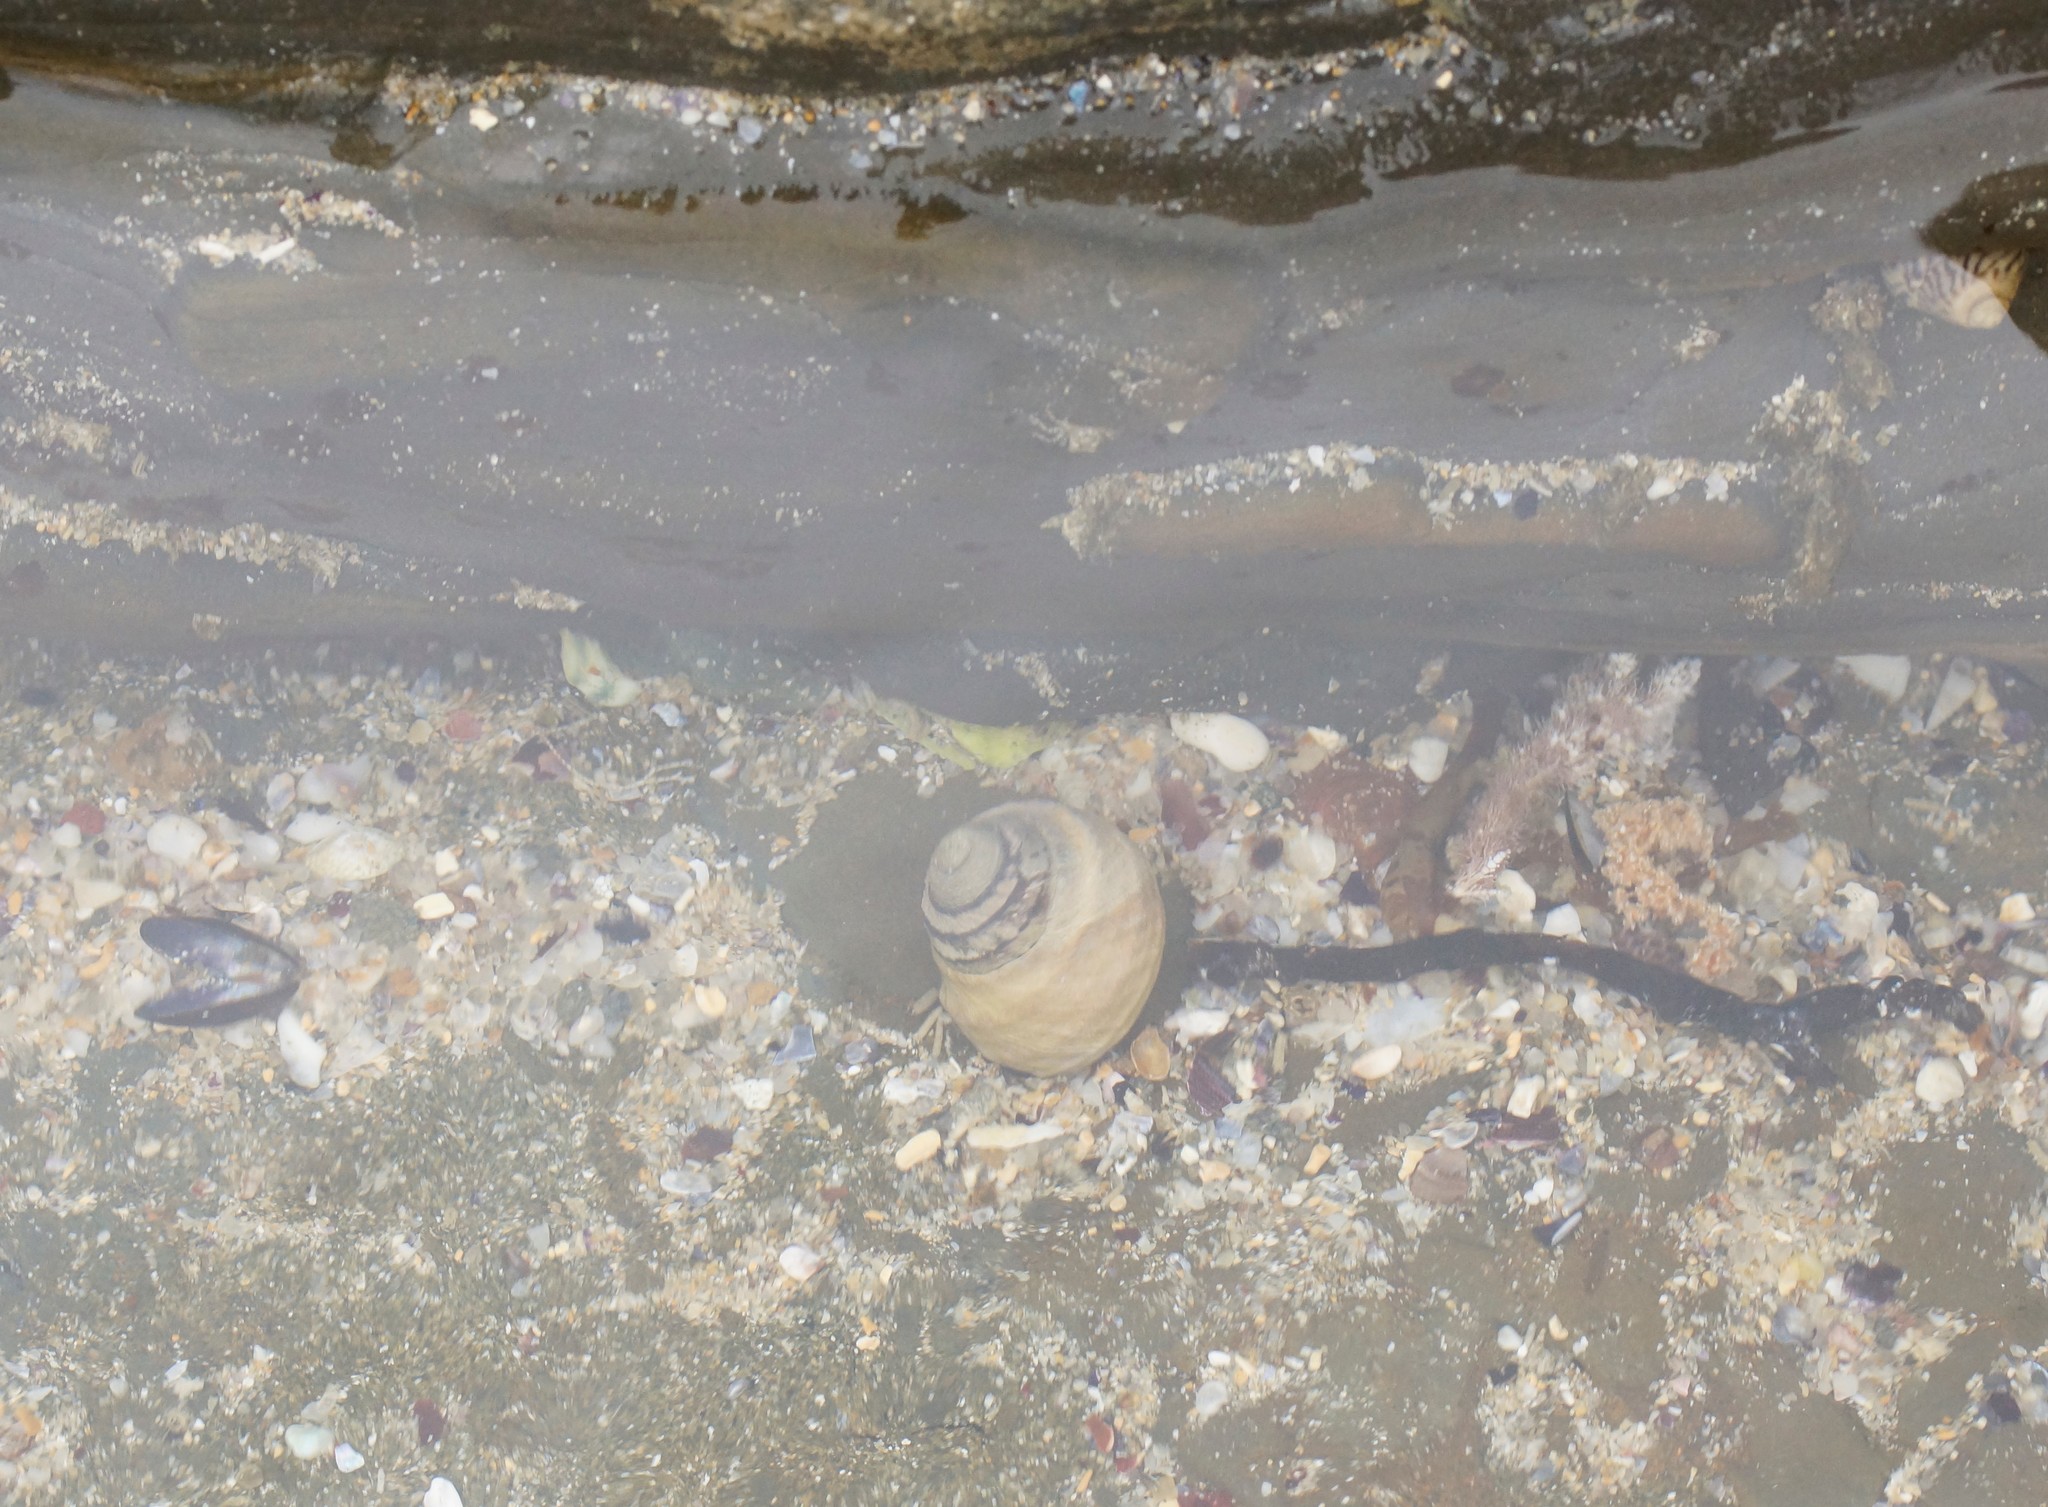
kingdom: Animalia
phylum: Mollusca
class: Gastropoda
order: Trochida
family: Trochidae
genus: Austrocochlea
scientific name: Austrocochlea constricta
